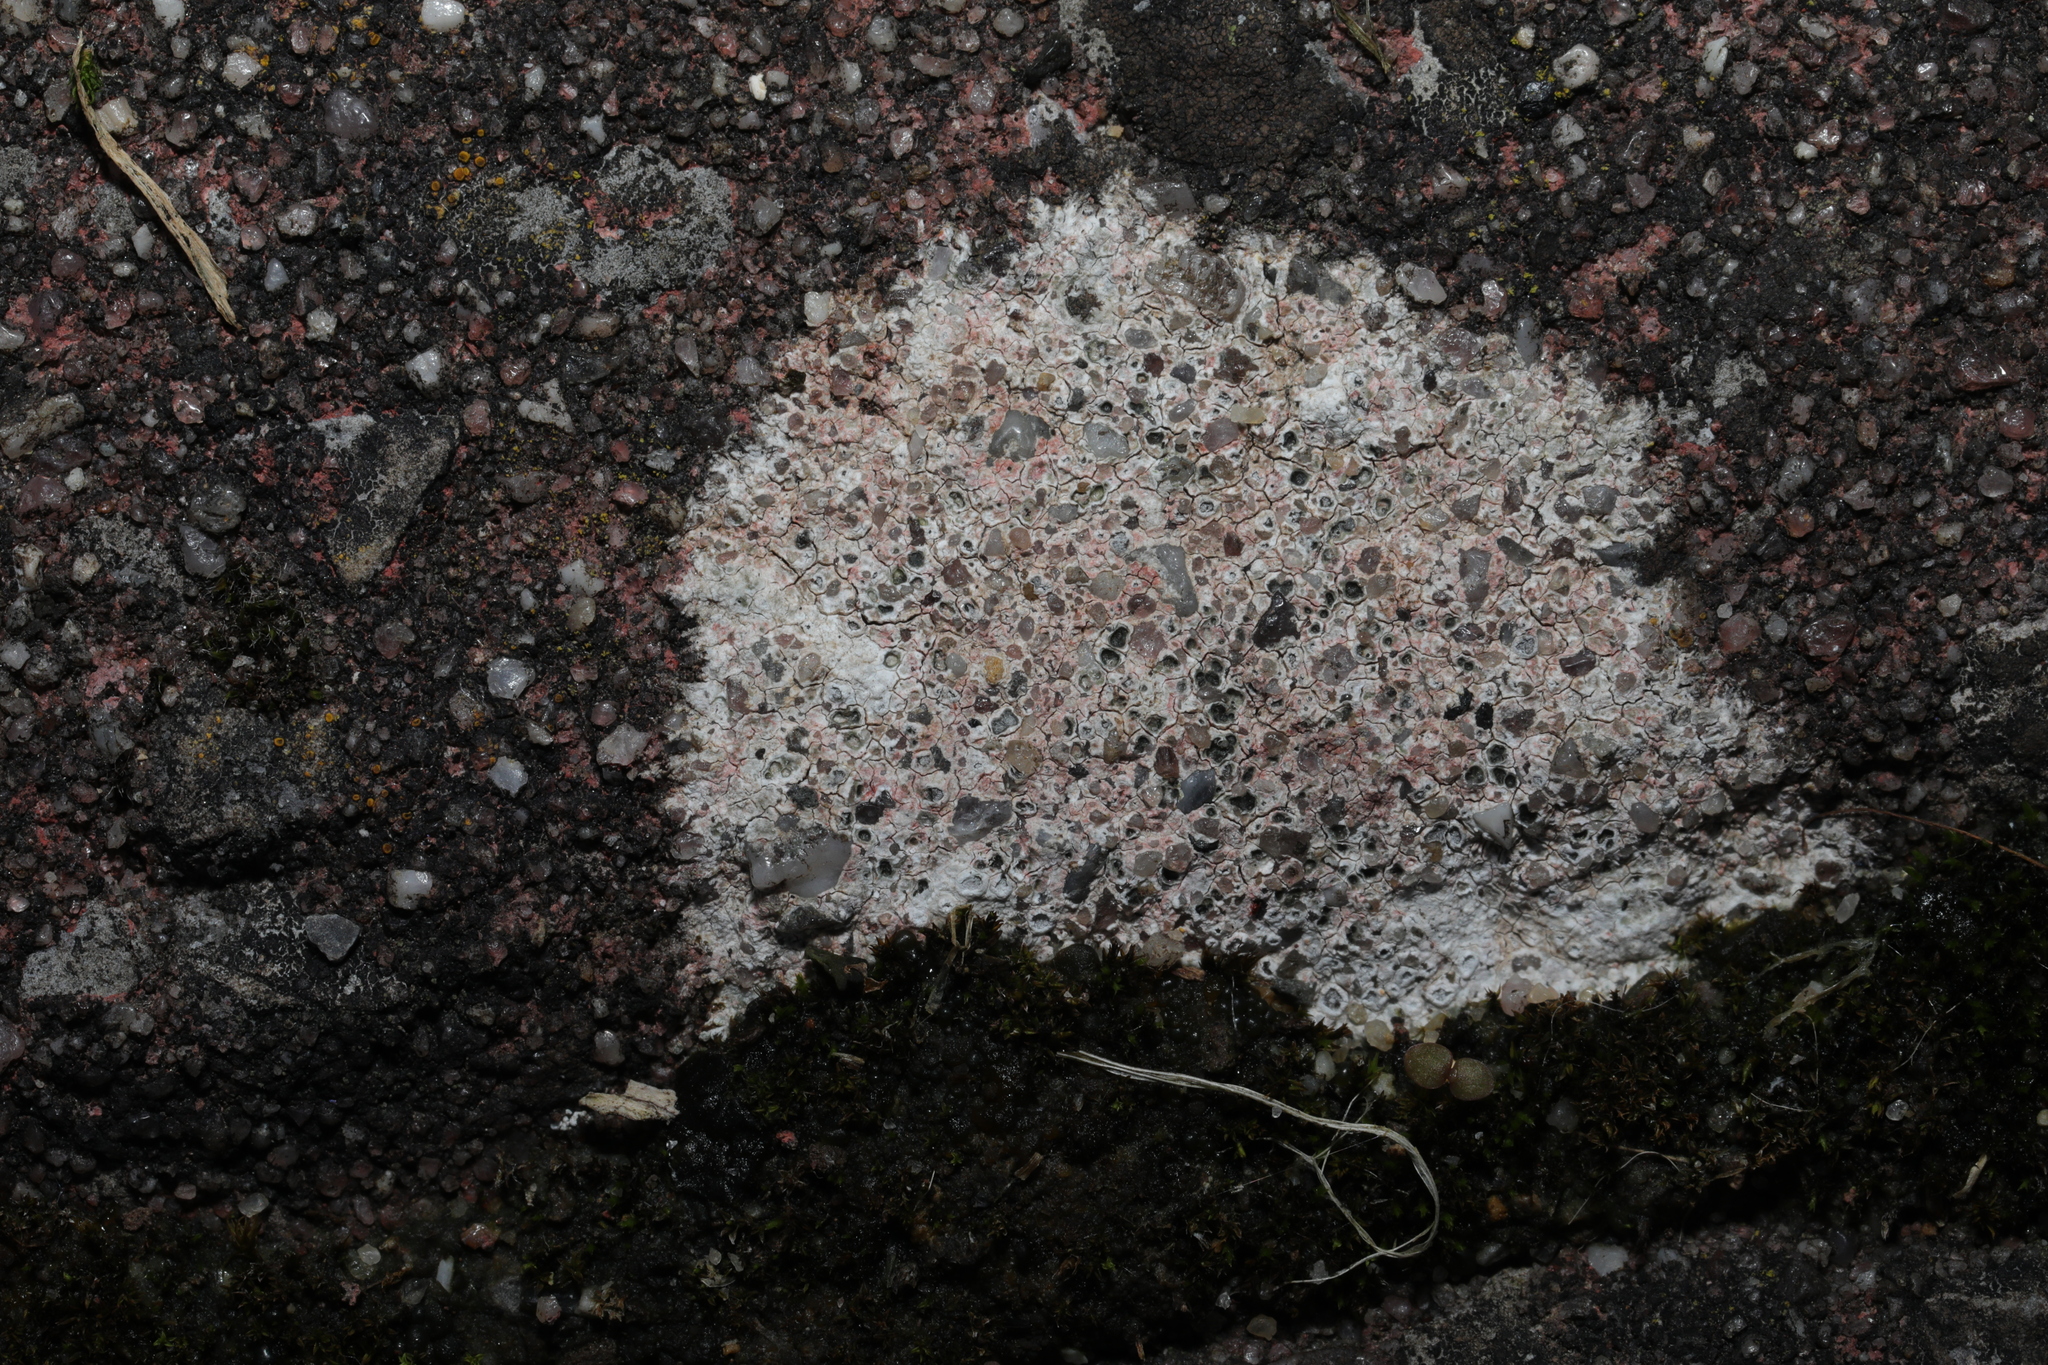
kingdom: Fungi
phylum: Ascomycota
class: Lecanoromycetes
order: Pertusariales
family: Megasporaceae
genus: Circinaria
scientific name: Circinaria hoffmanniana
